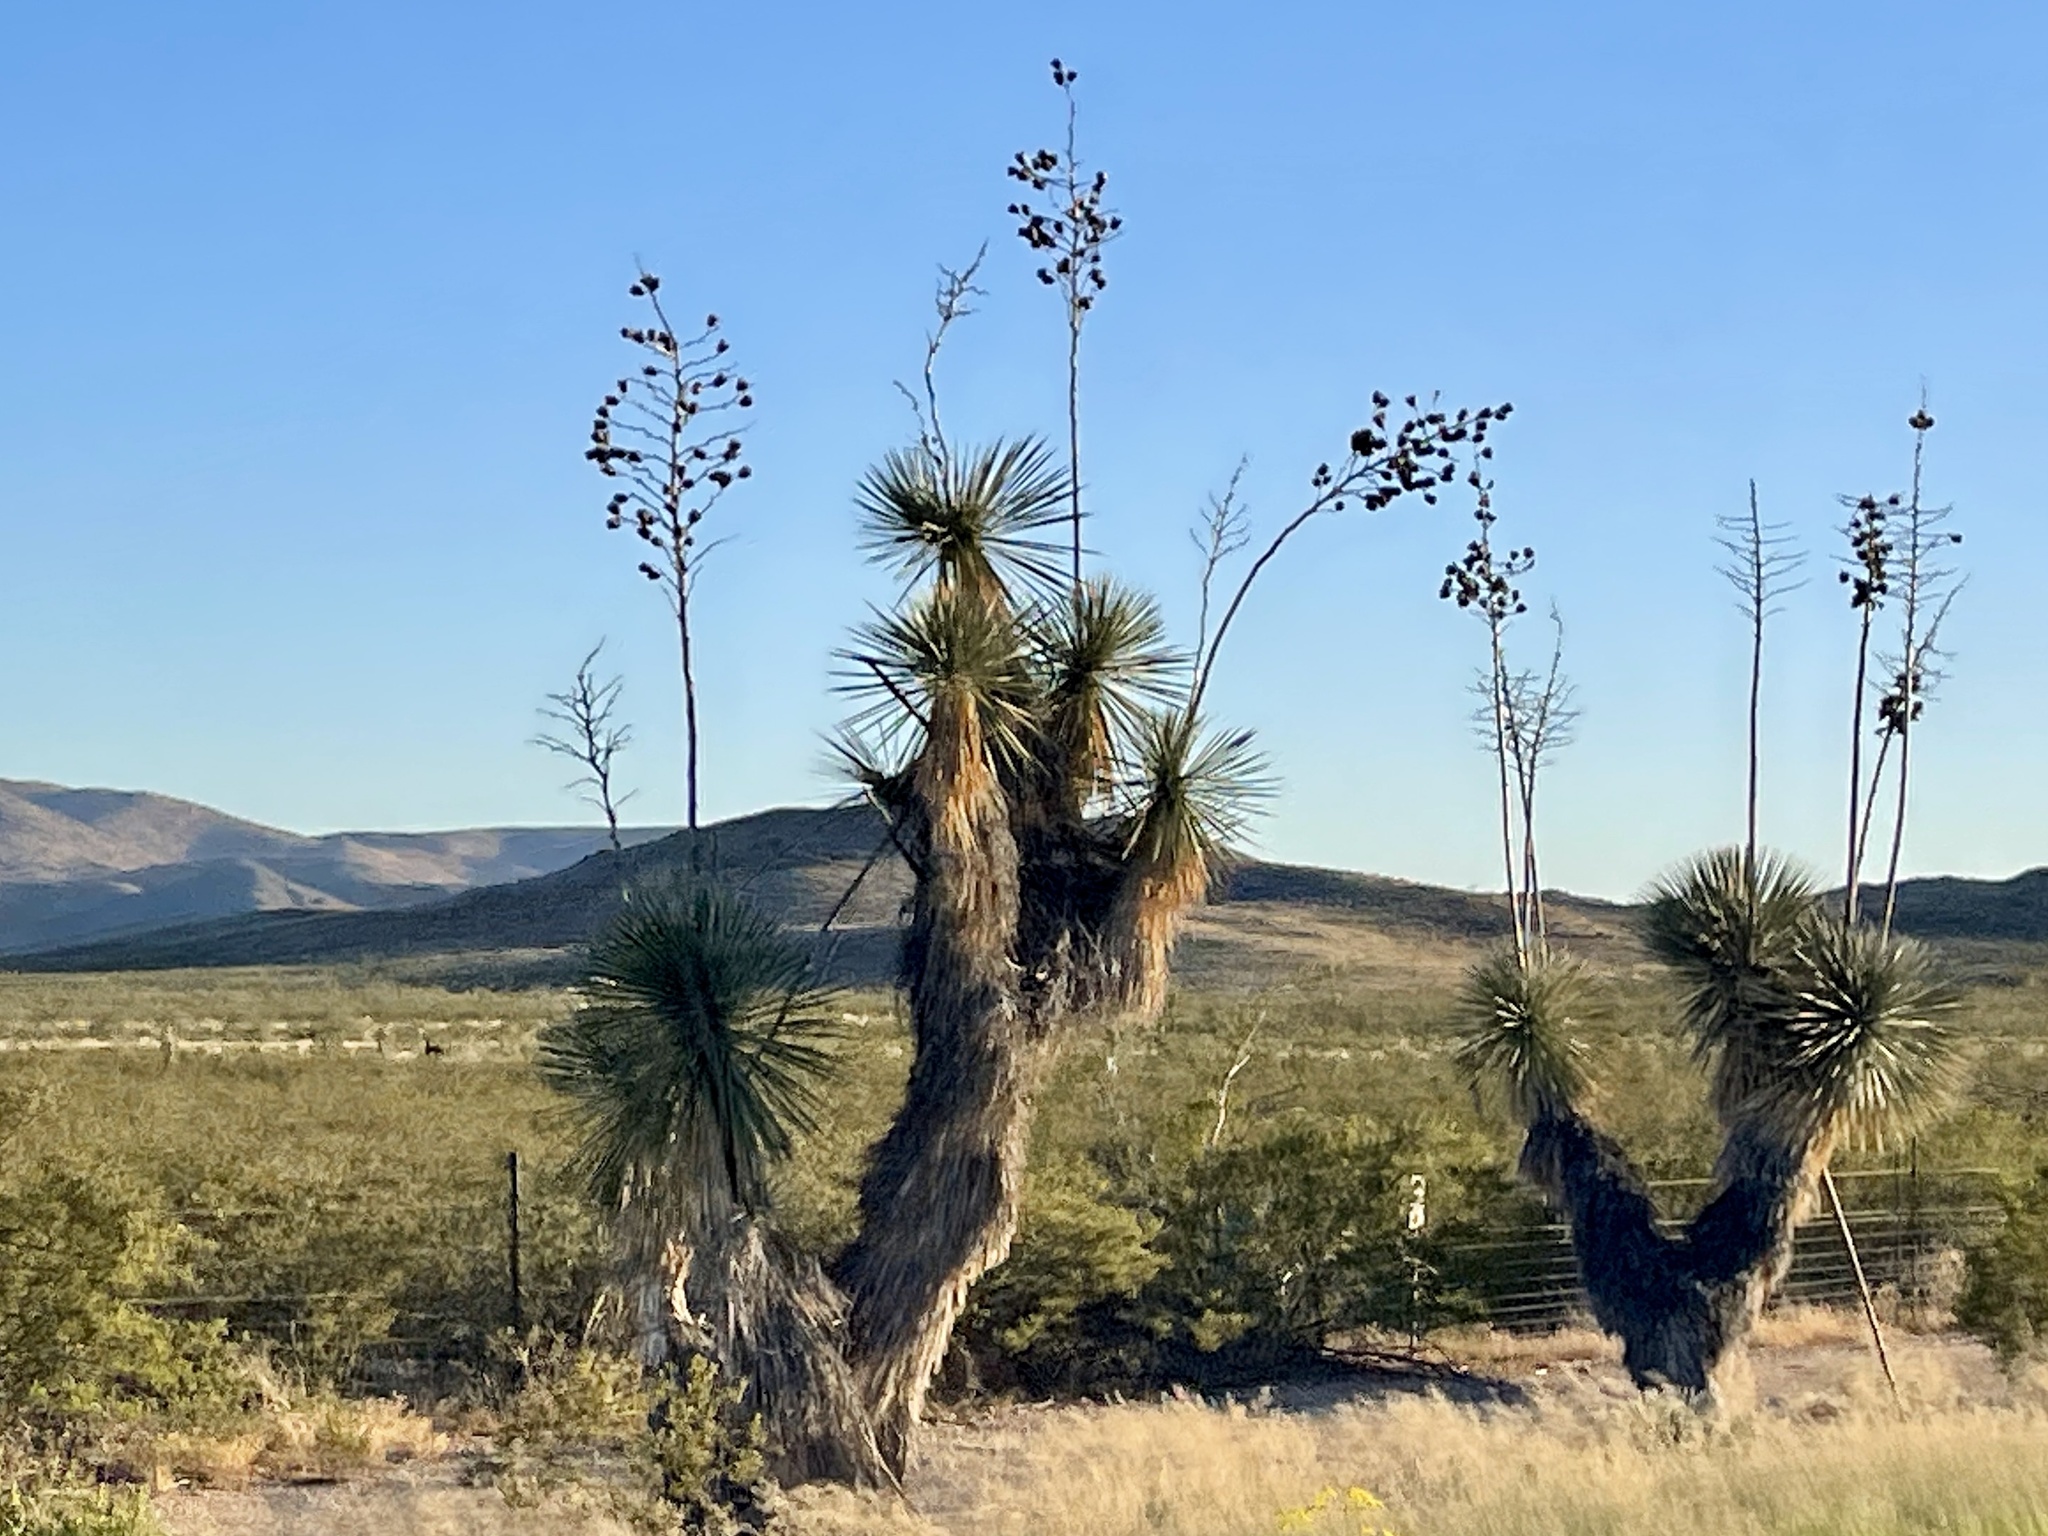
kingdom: Plantae
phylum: Tracheophyta
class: Liliopsida
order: Asparagales
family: Asparagaceae
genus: Yucca
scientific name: Yucca elata
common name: Palmella
